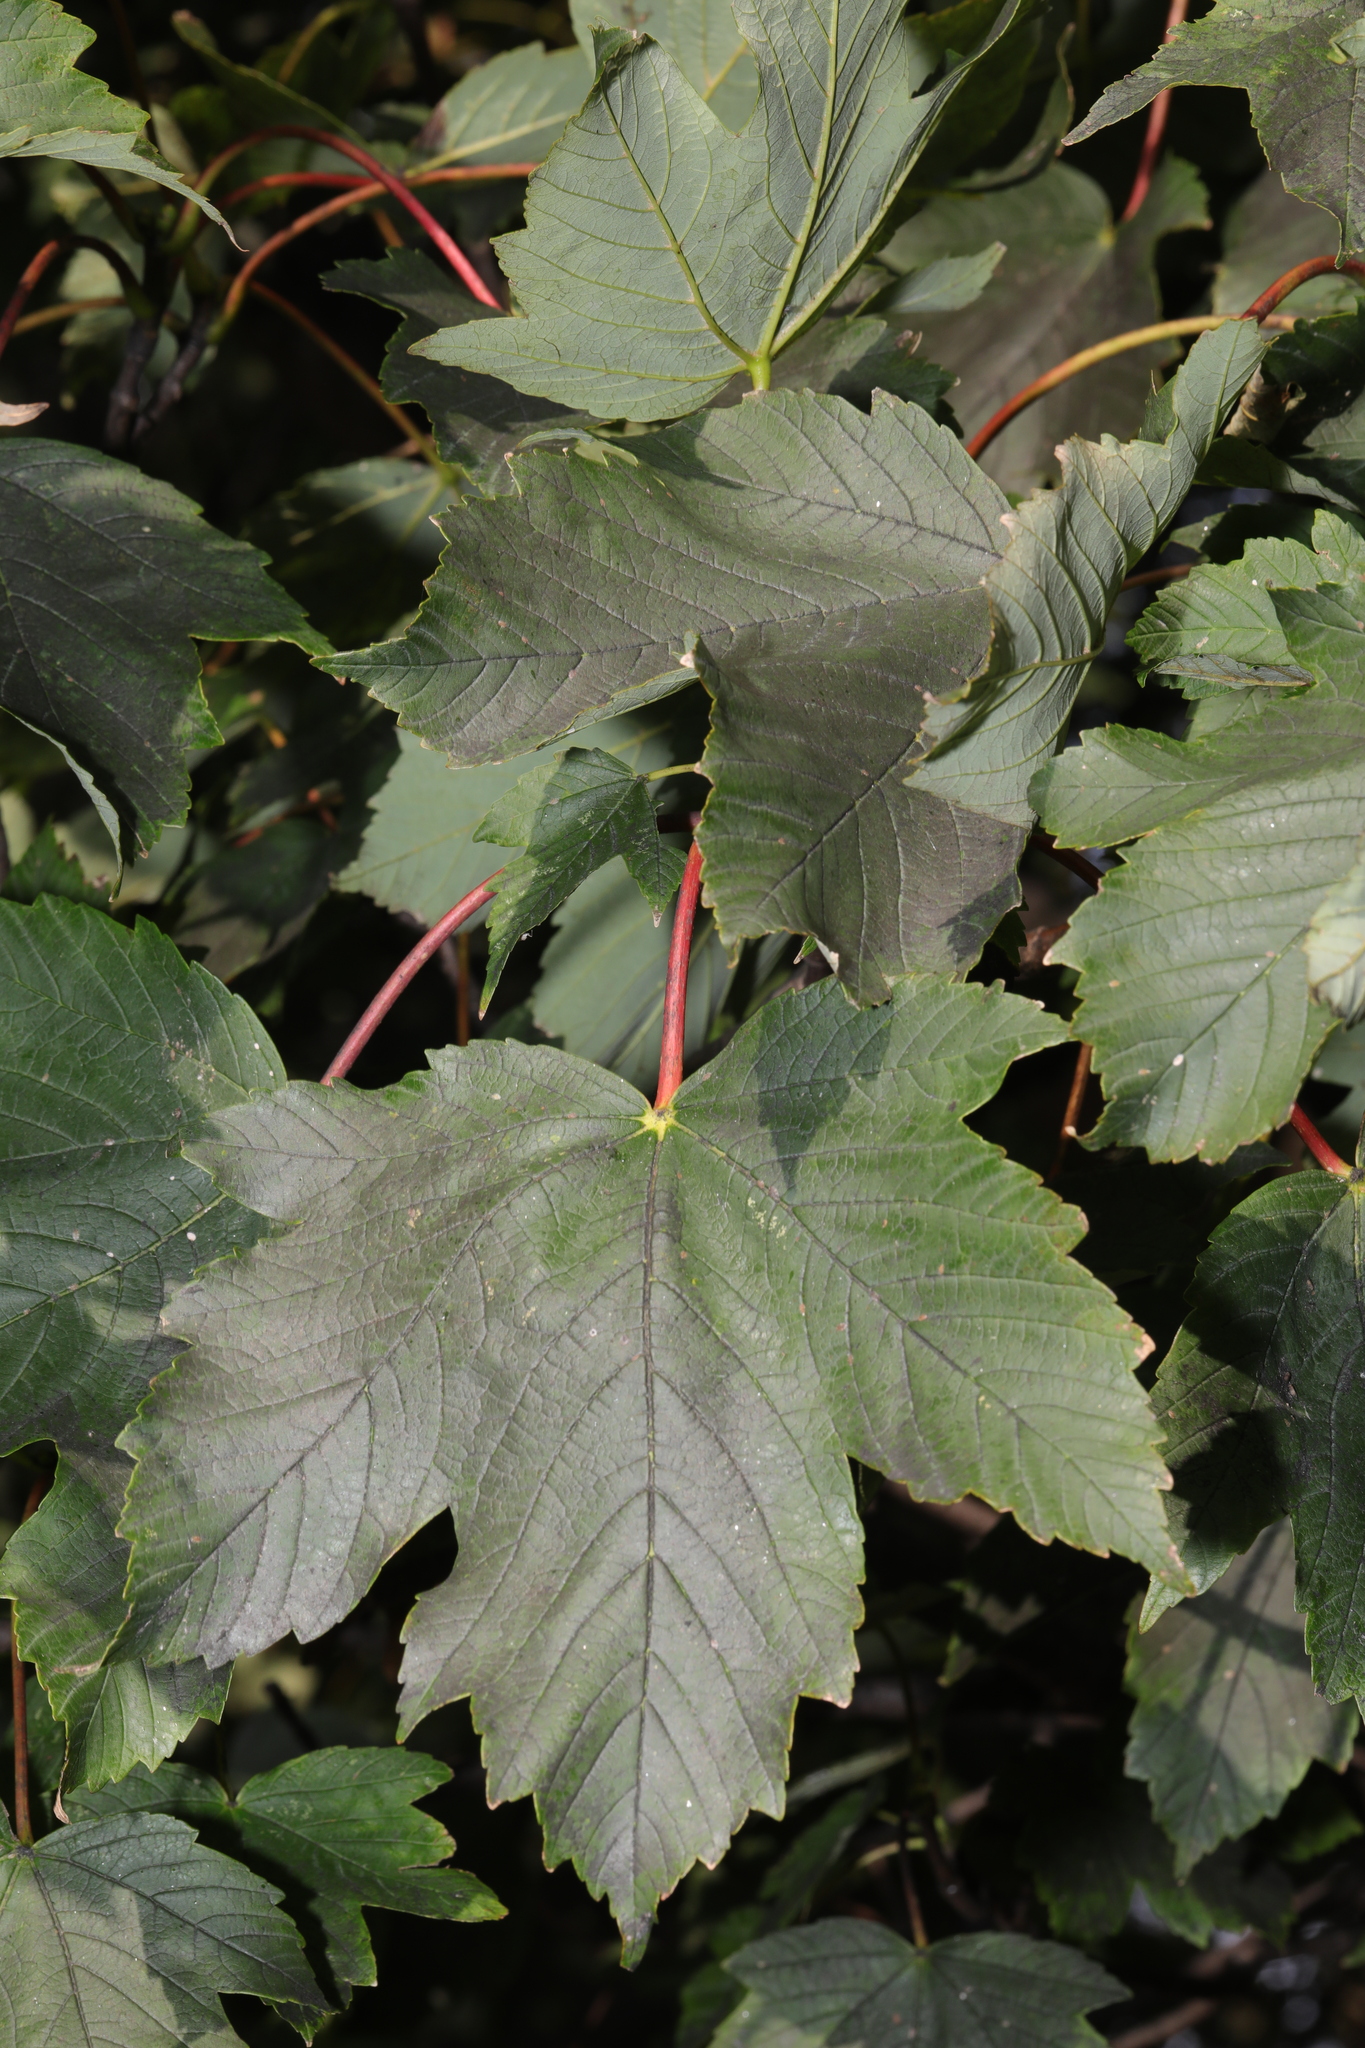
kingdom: Plantae
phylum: Tracheophyta
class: Magnoliopsida
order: Sapindales
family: Sapindaceae
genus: Acer
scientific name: Acer pseudoplatanus
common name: Sycamore
